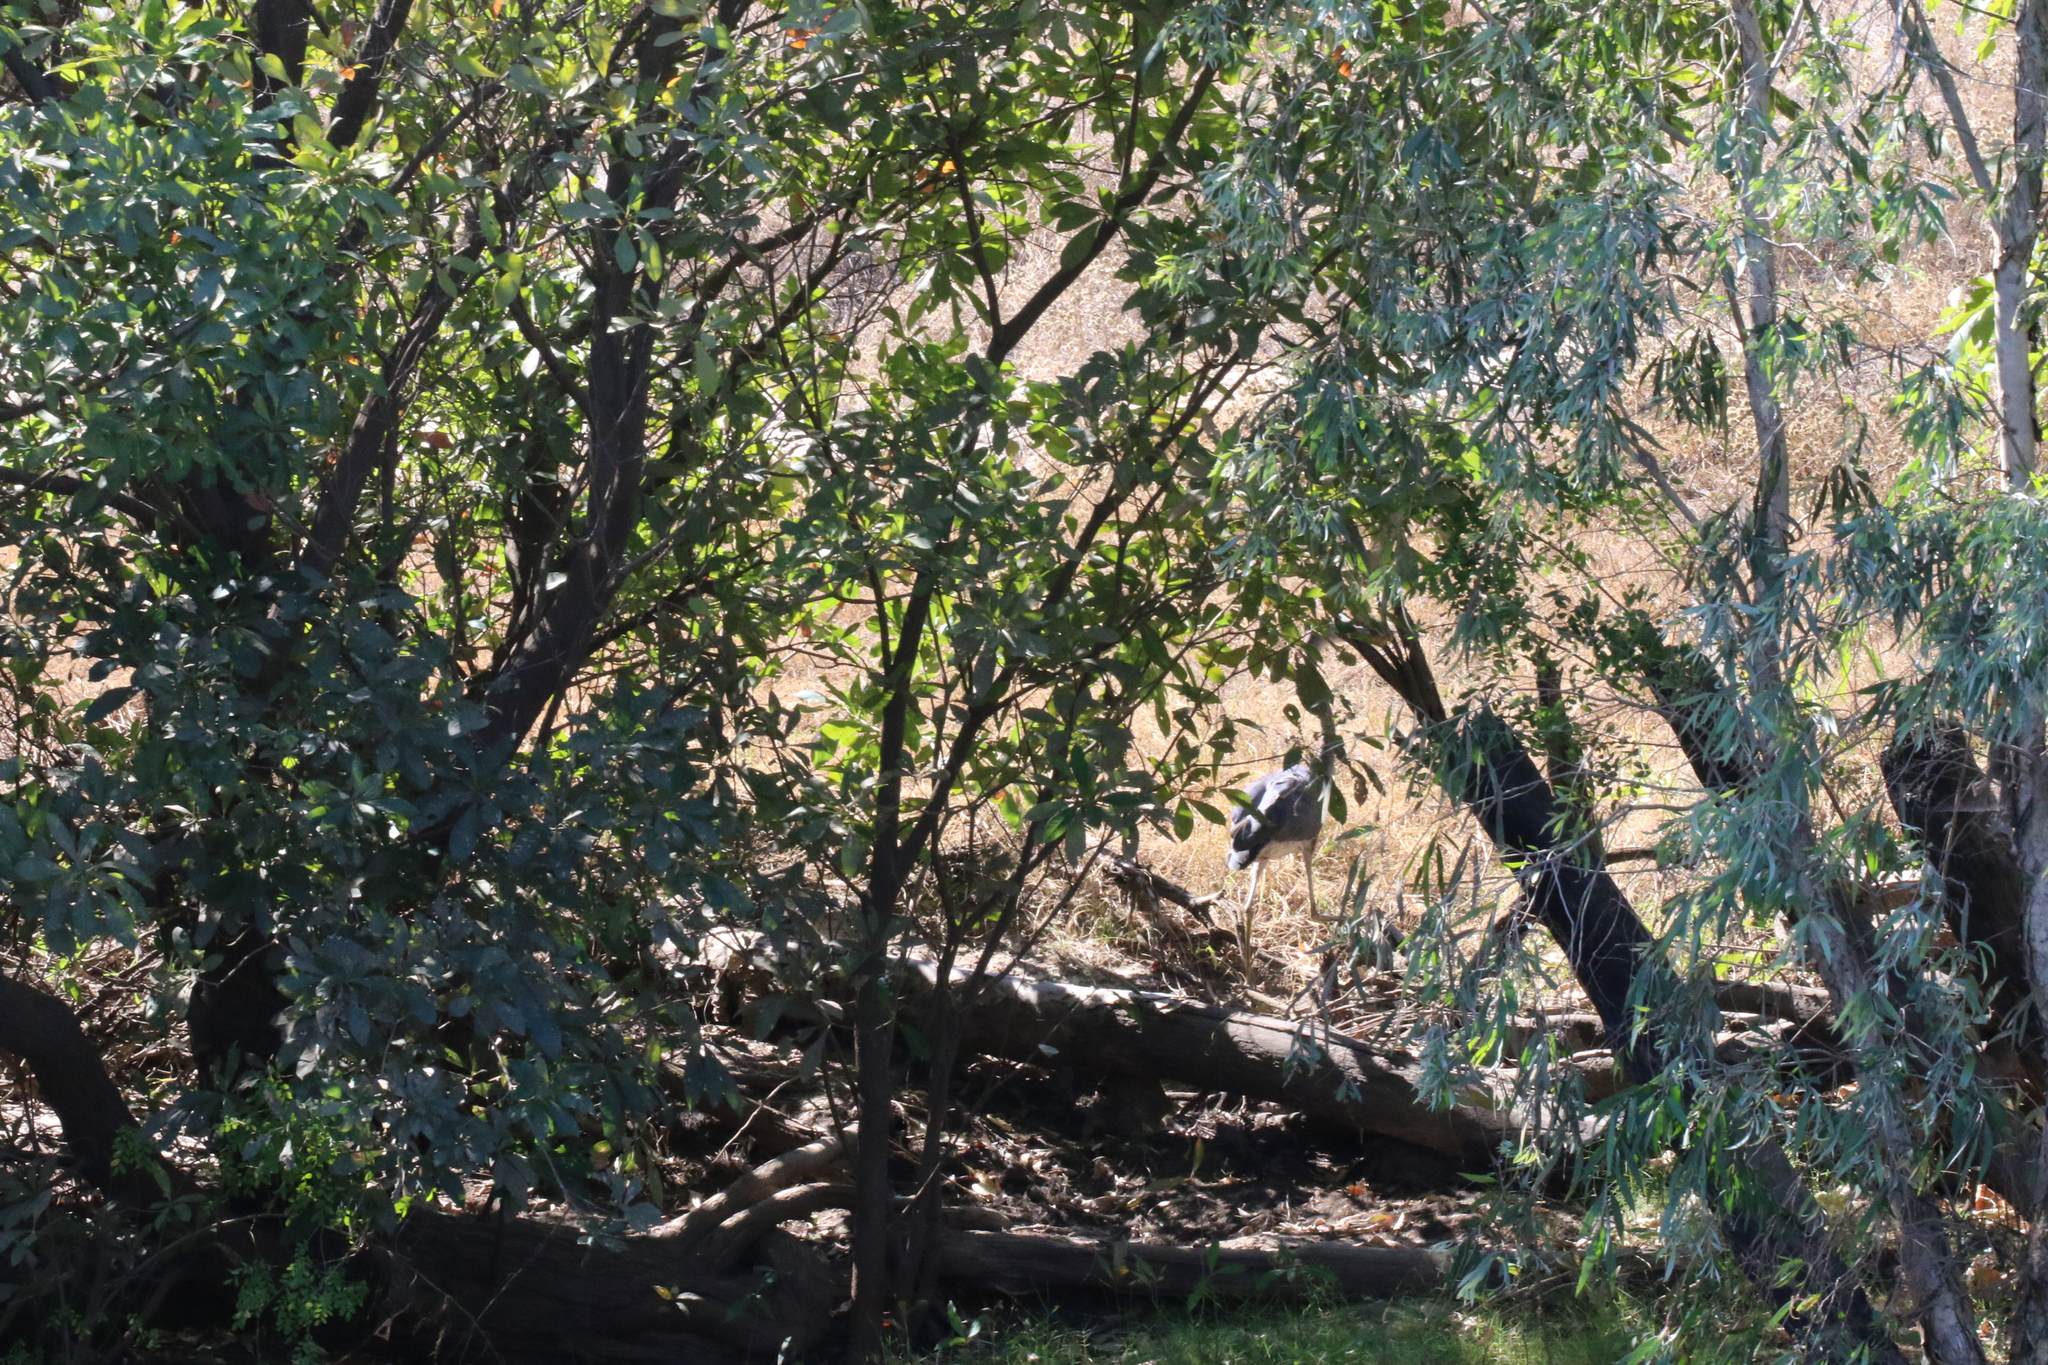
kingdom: Animalia
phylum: Chordata
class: Aves
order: Pelecaniformes
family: Ardeidae
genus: Ardea
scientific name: Ardea sumatrana
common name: Great-billed heron
